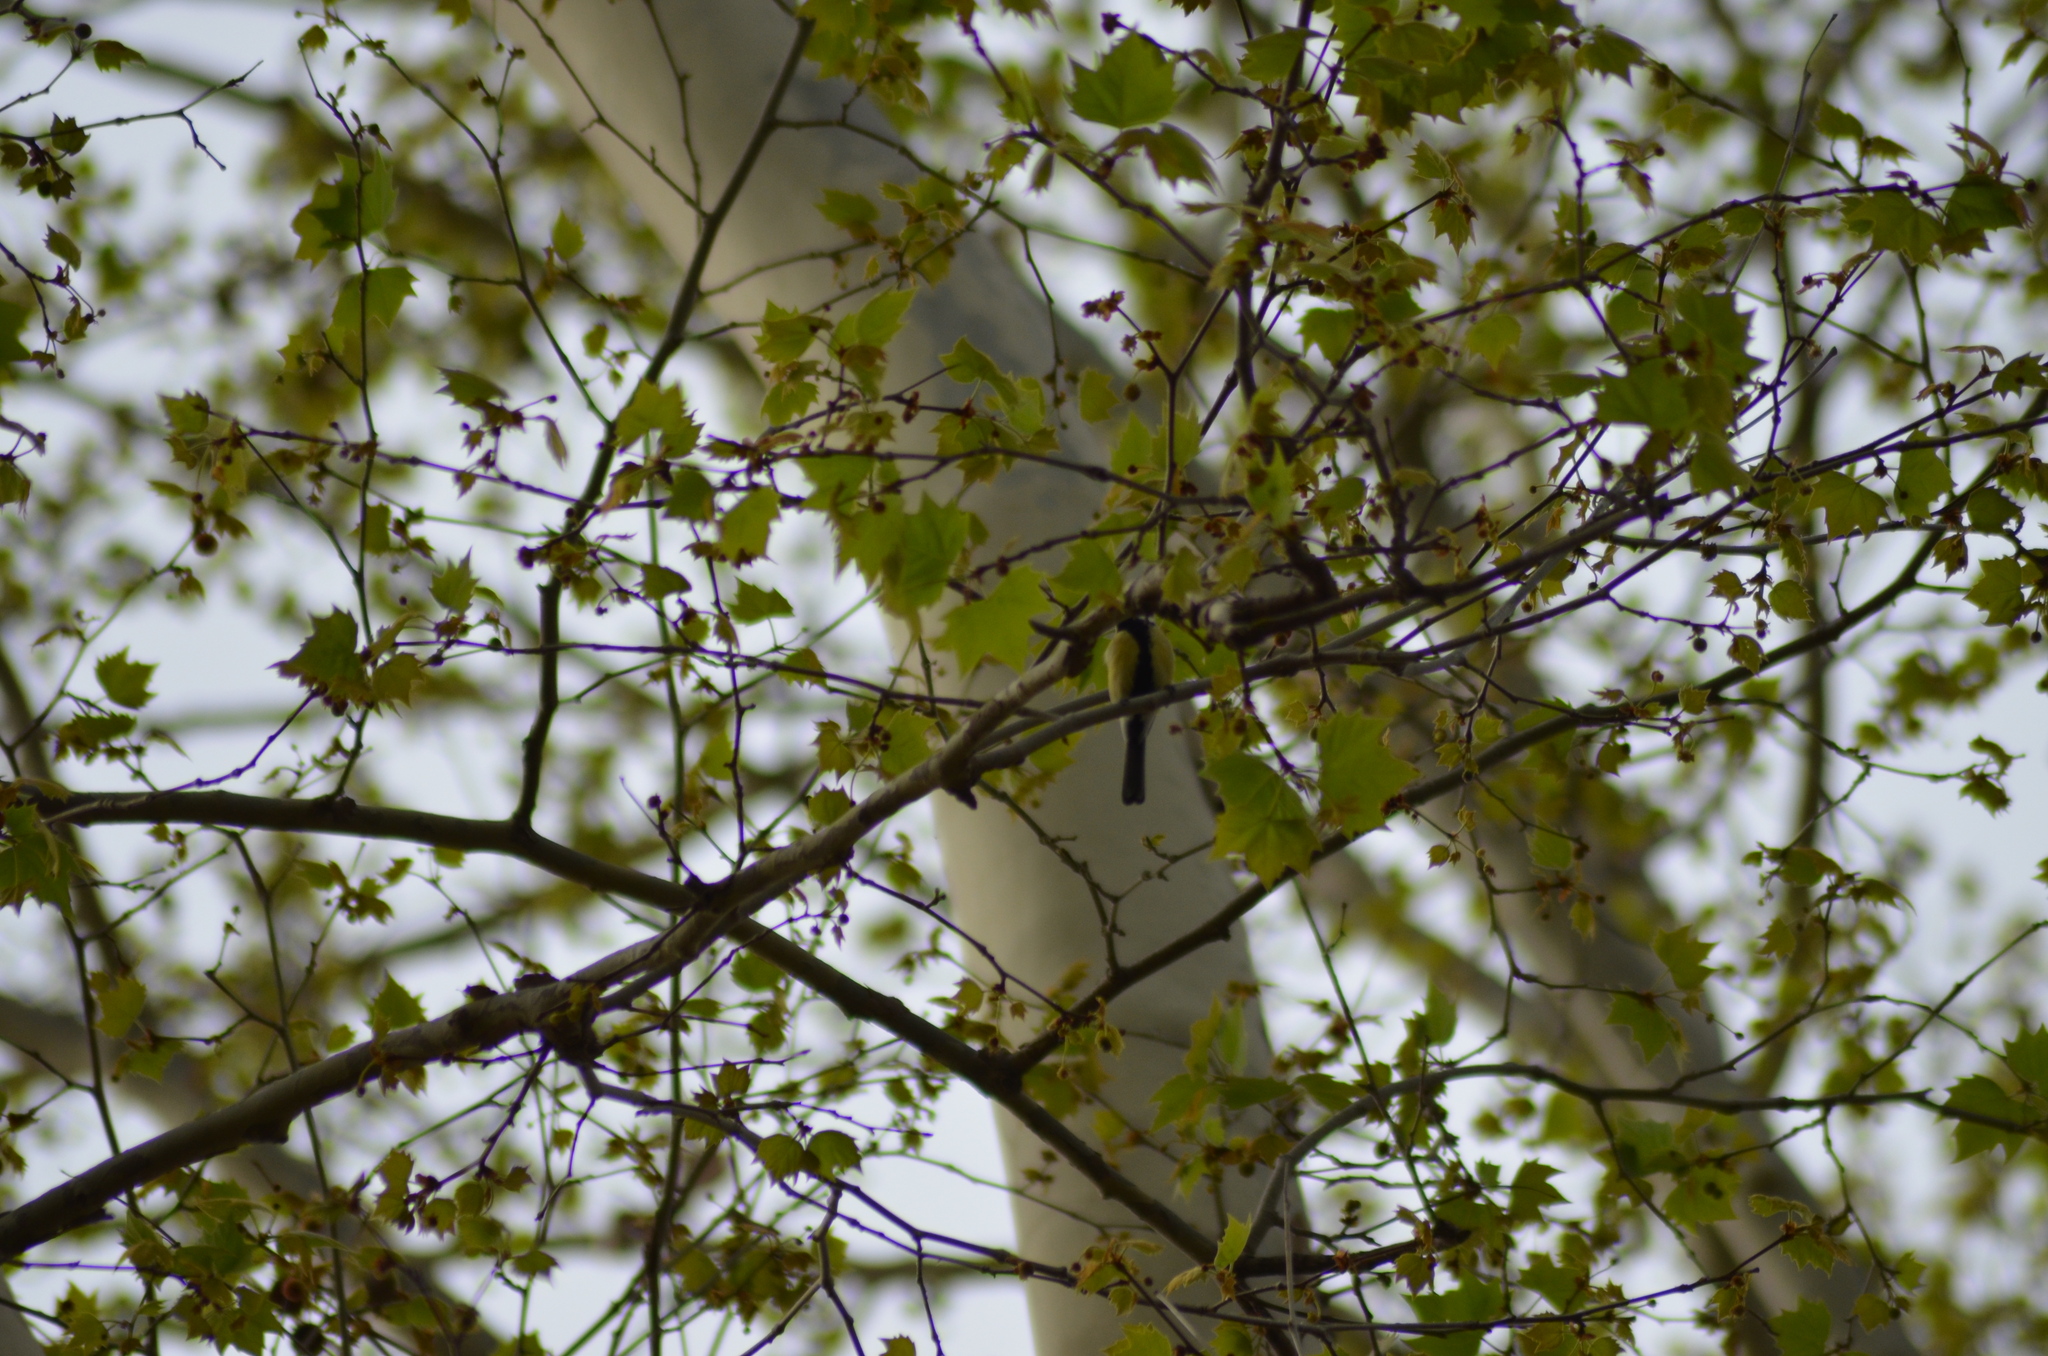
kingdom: Animalia
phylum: Chordata
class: Aves
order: Passeriformes
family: Paridae
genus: Parus
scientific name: Parus major
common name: Great tit
